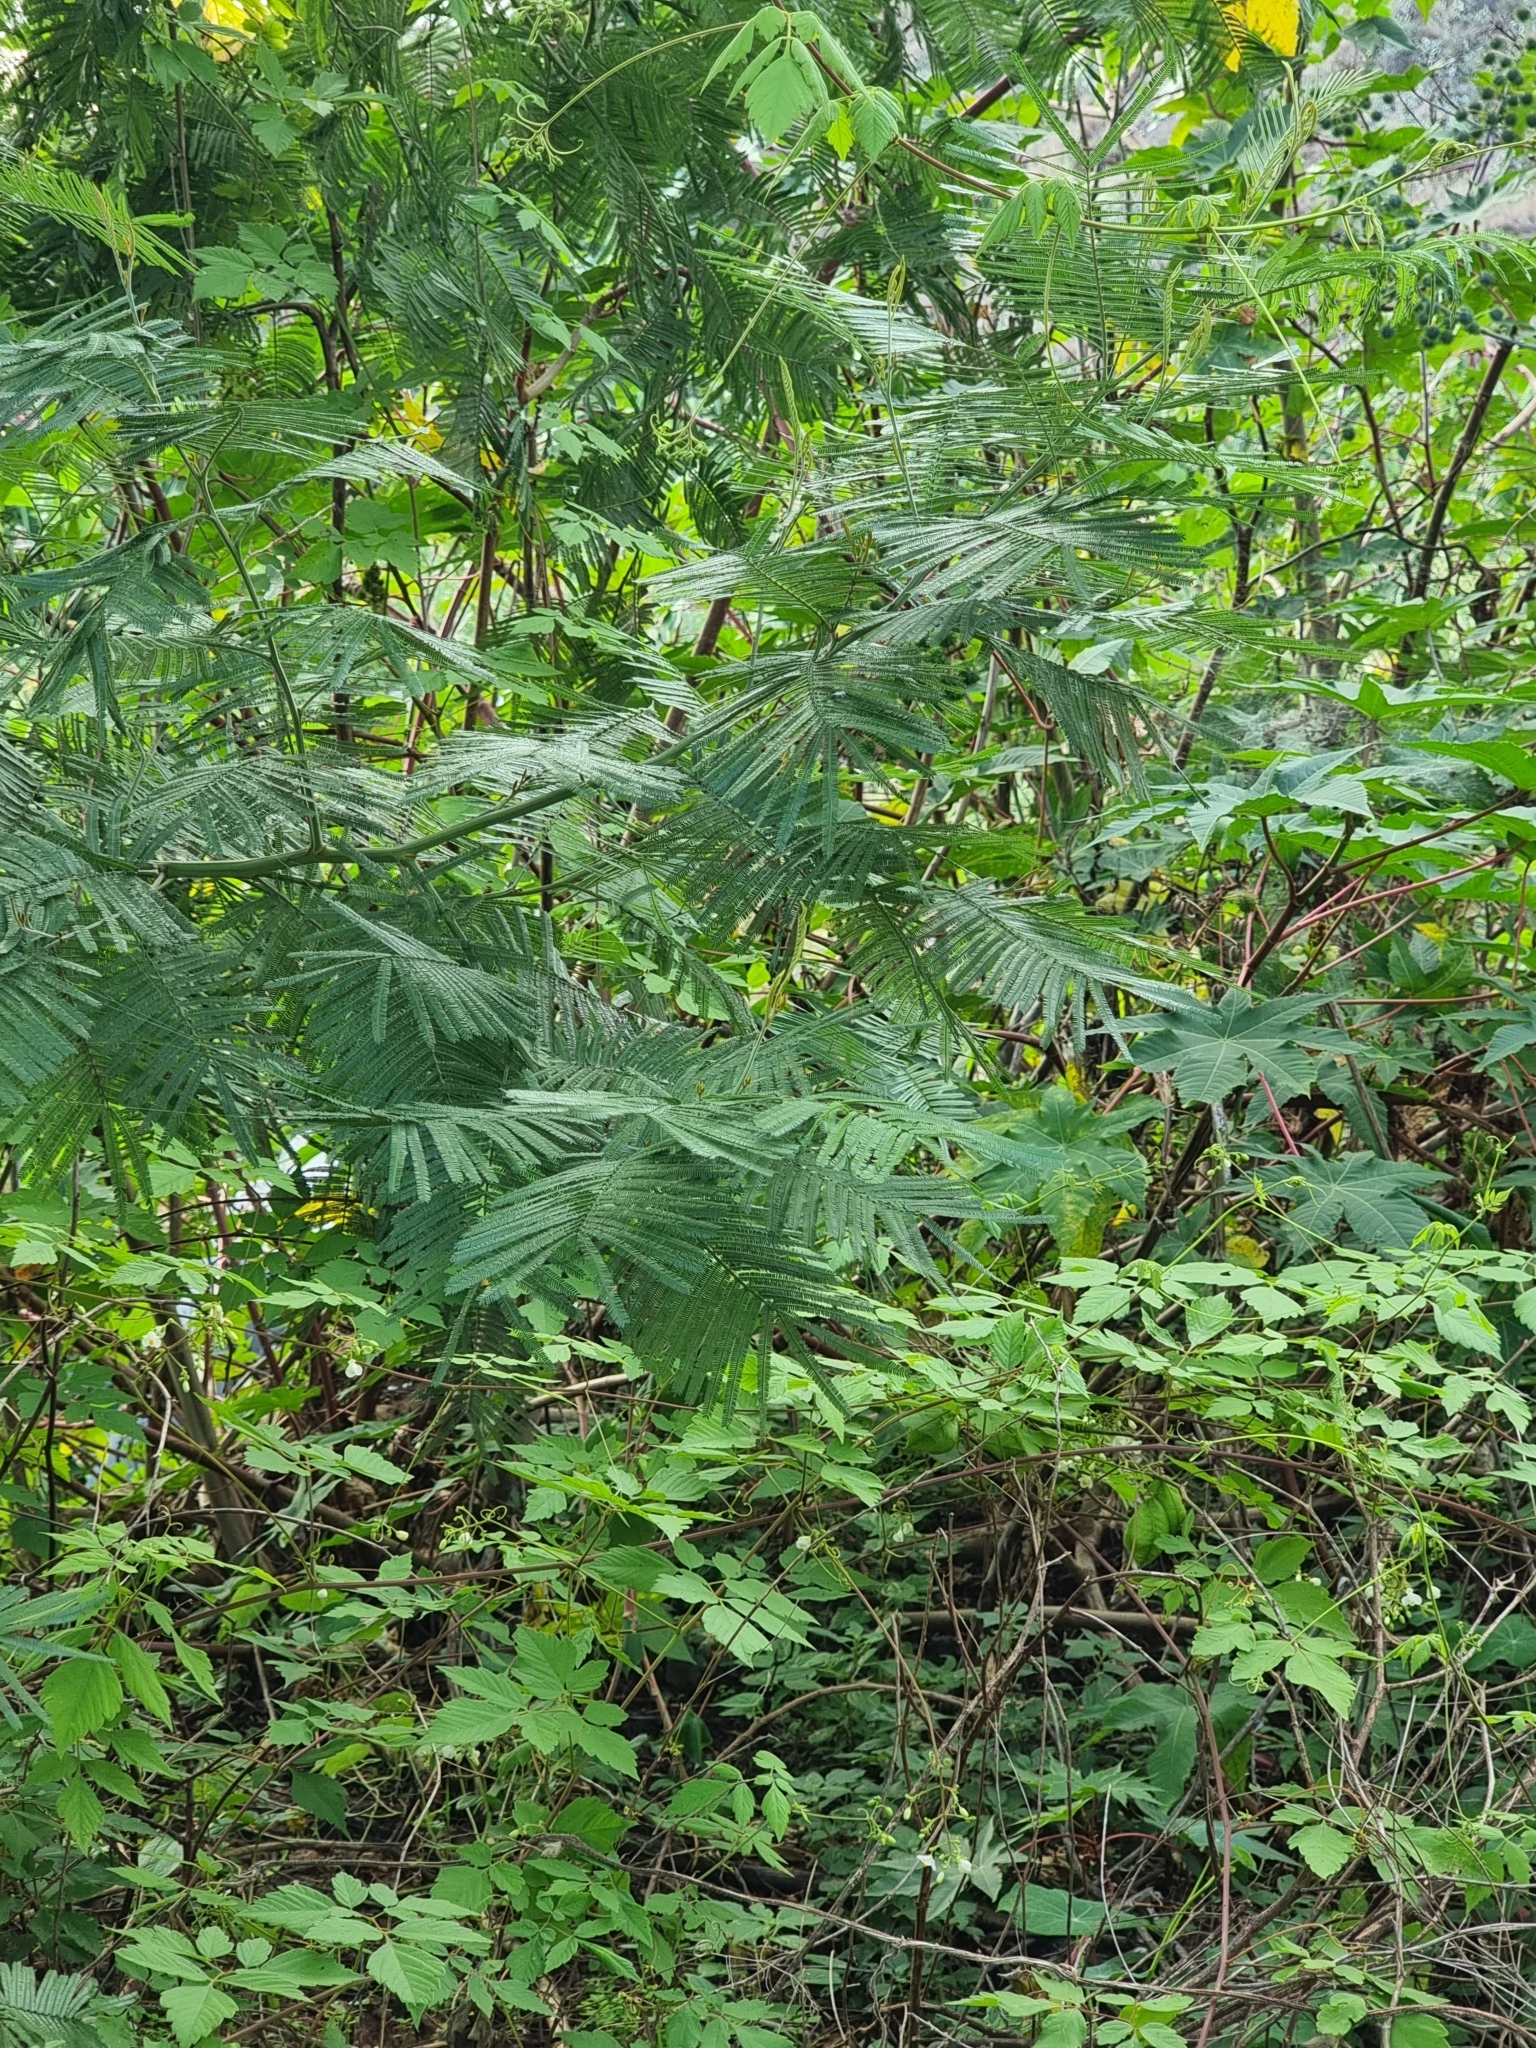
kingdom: Plantae
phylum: Tracheophyta
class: Magnoliopsida
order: Fabales
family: Fabaceae
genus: Acacia
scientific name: Acacia mearnsii
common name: Black wattle
